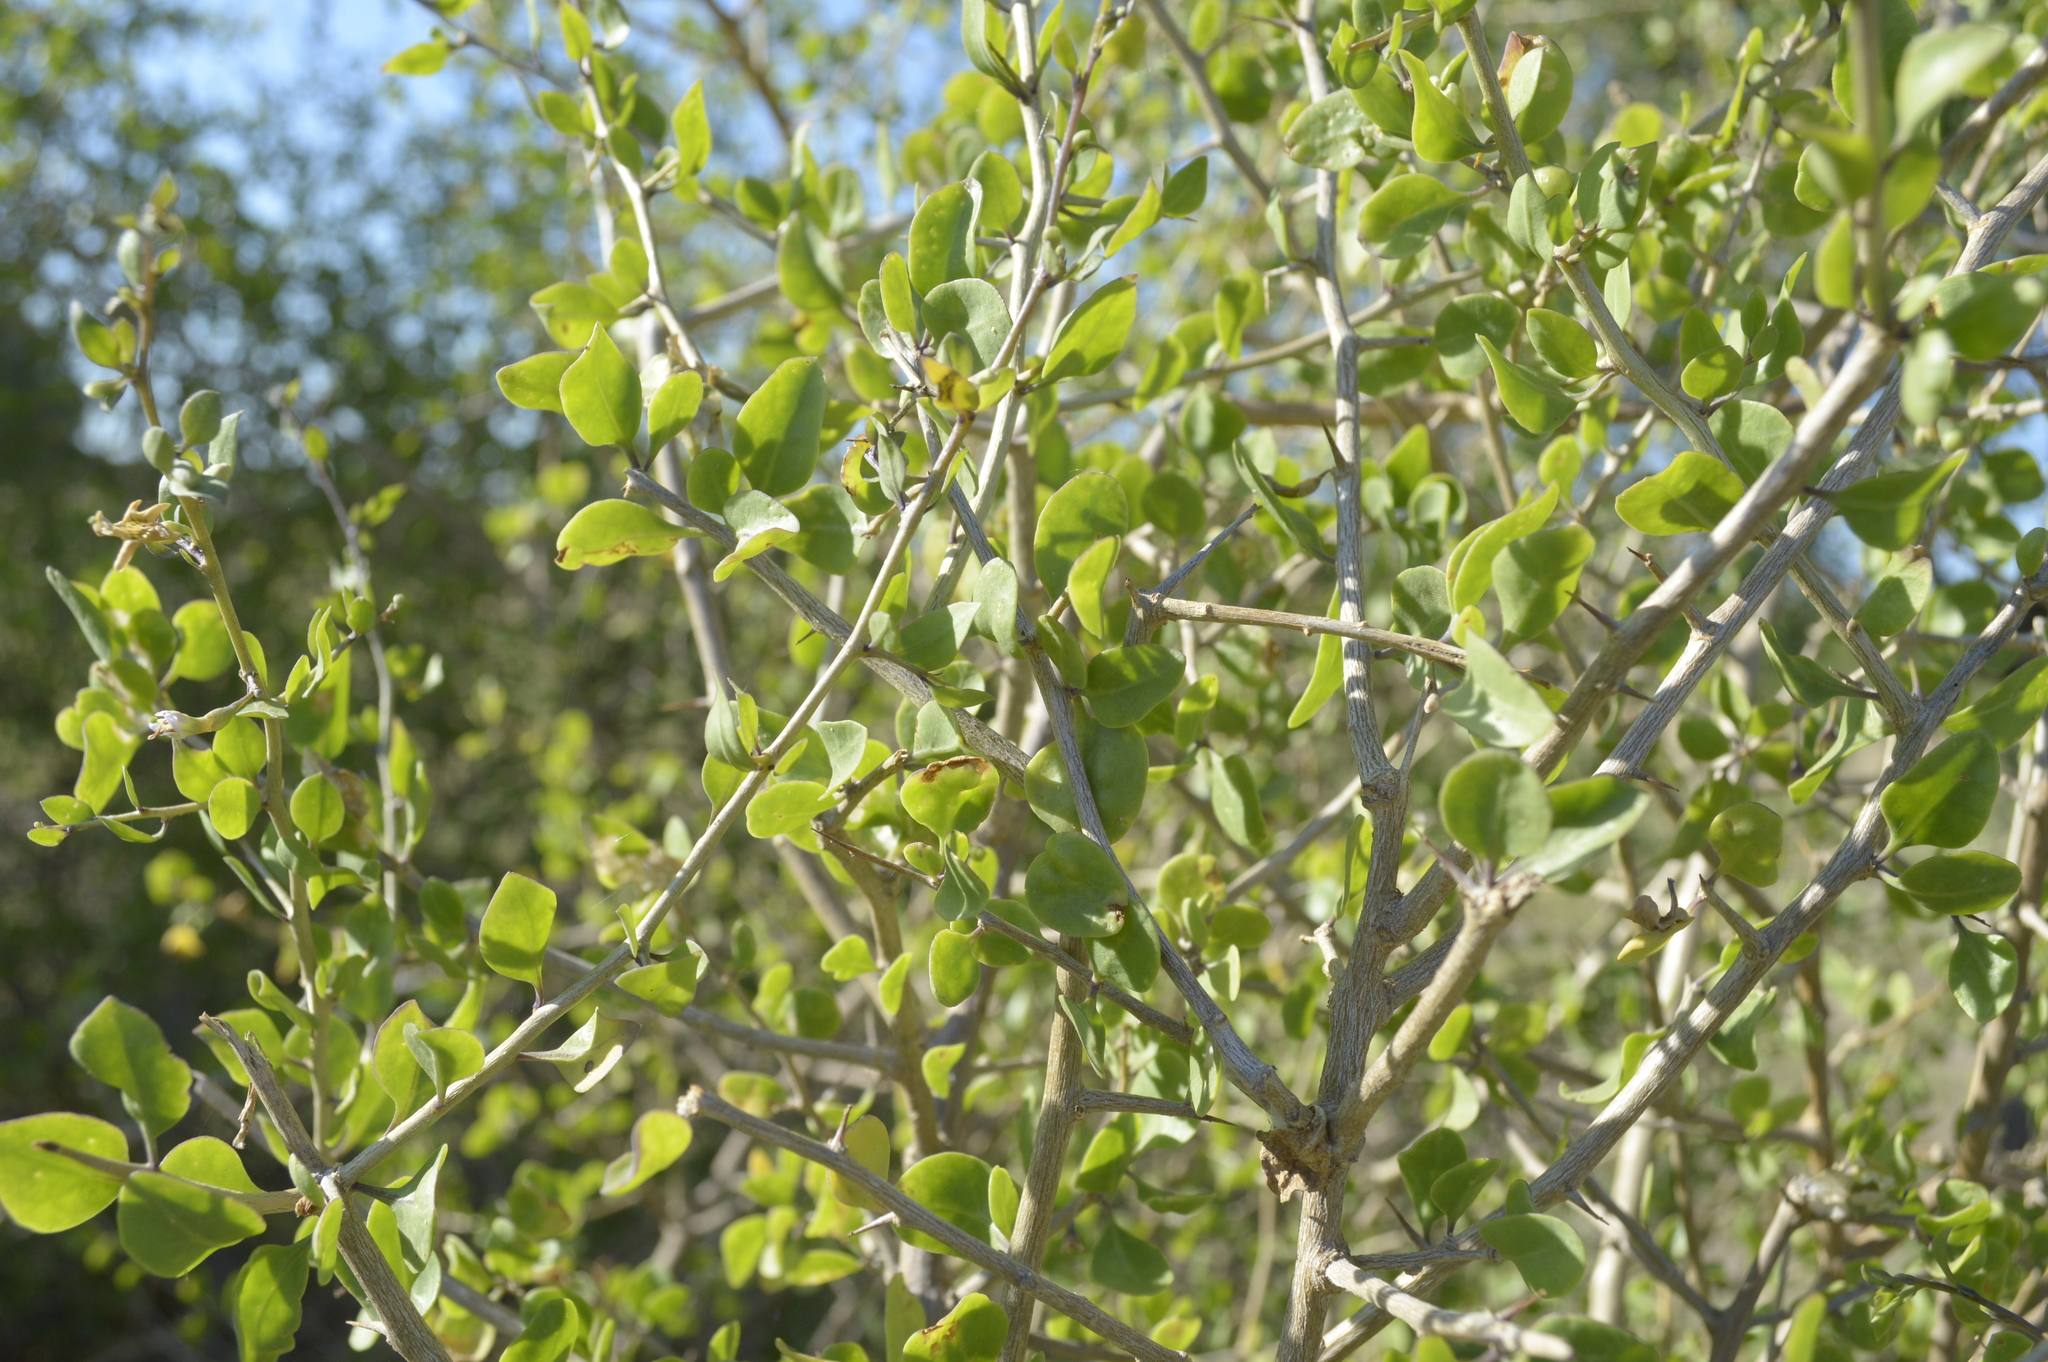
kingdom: Plantae
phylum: Tracheophyta
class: Magnoliopsida
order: Solanales
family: Solanaceae
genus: Lycium
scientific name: Lycium americanum
